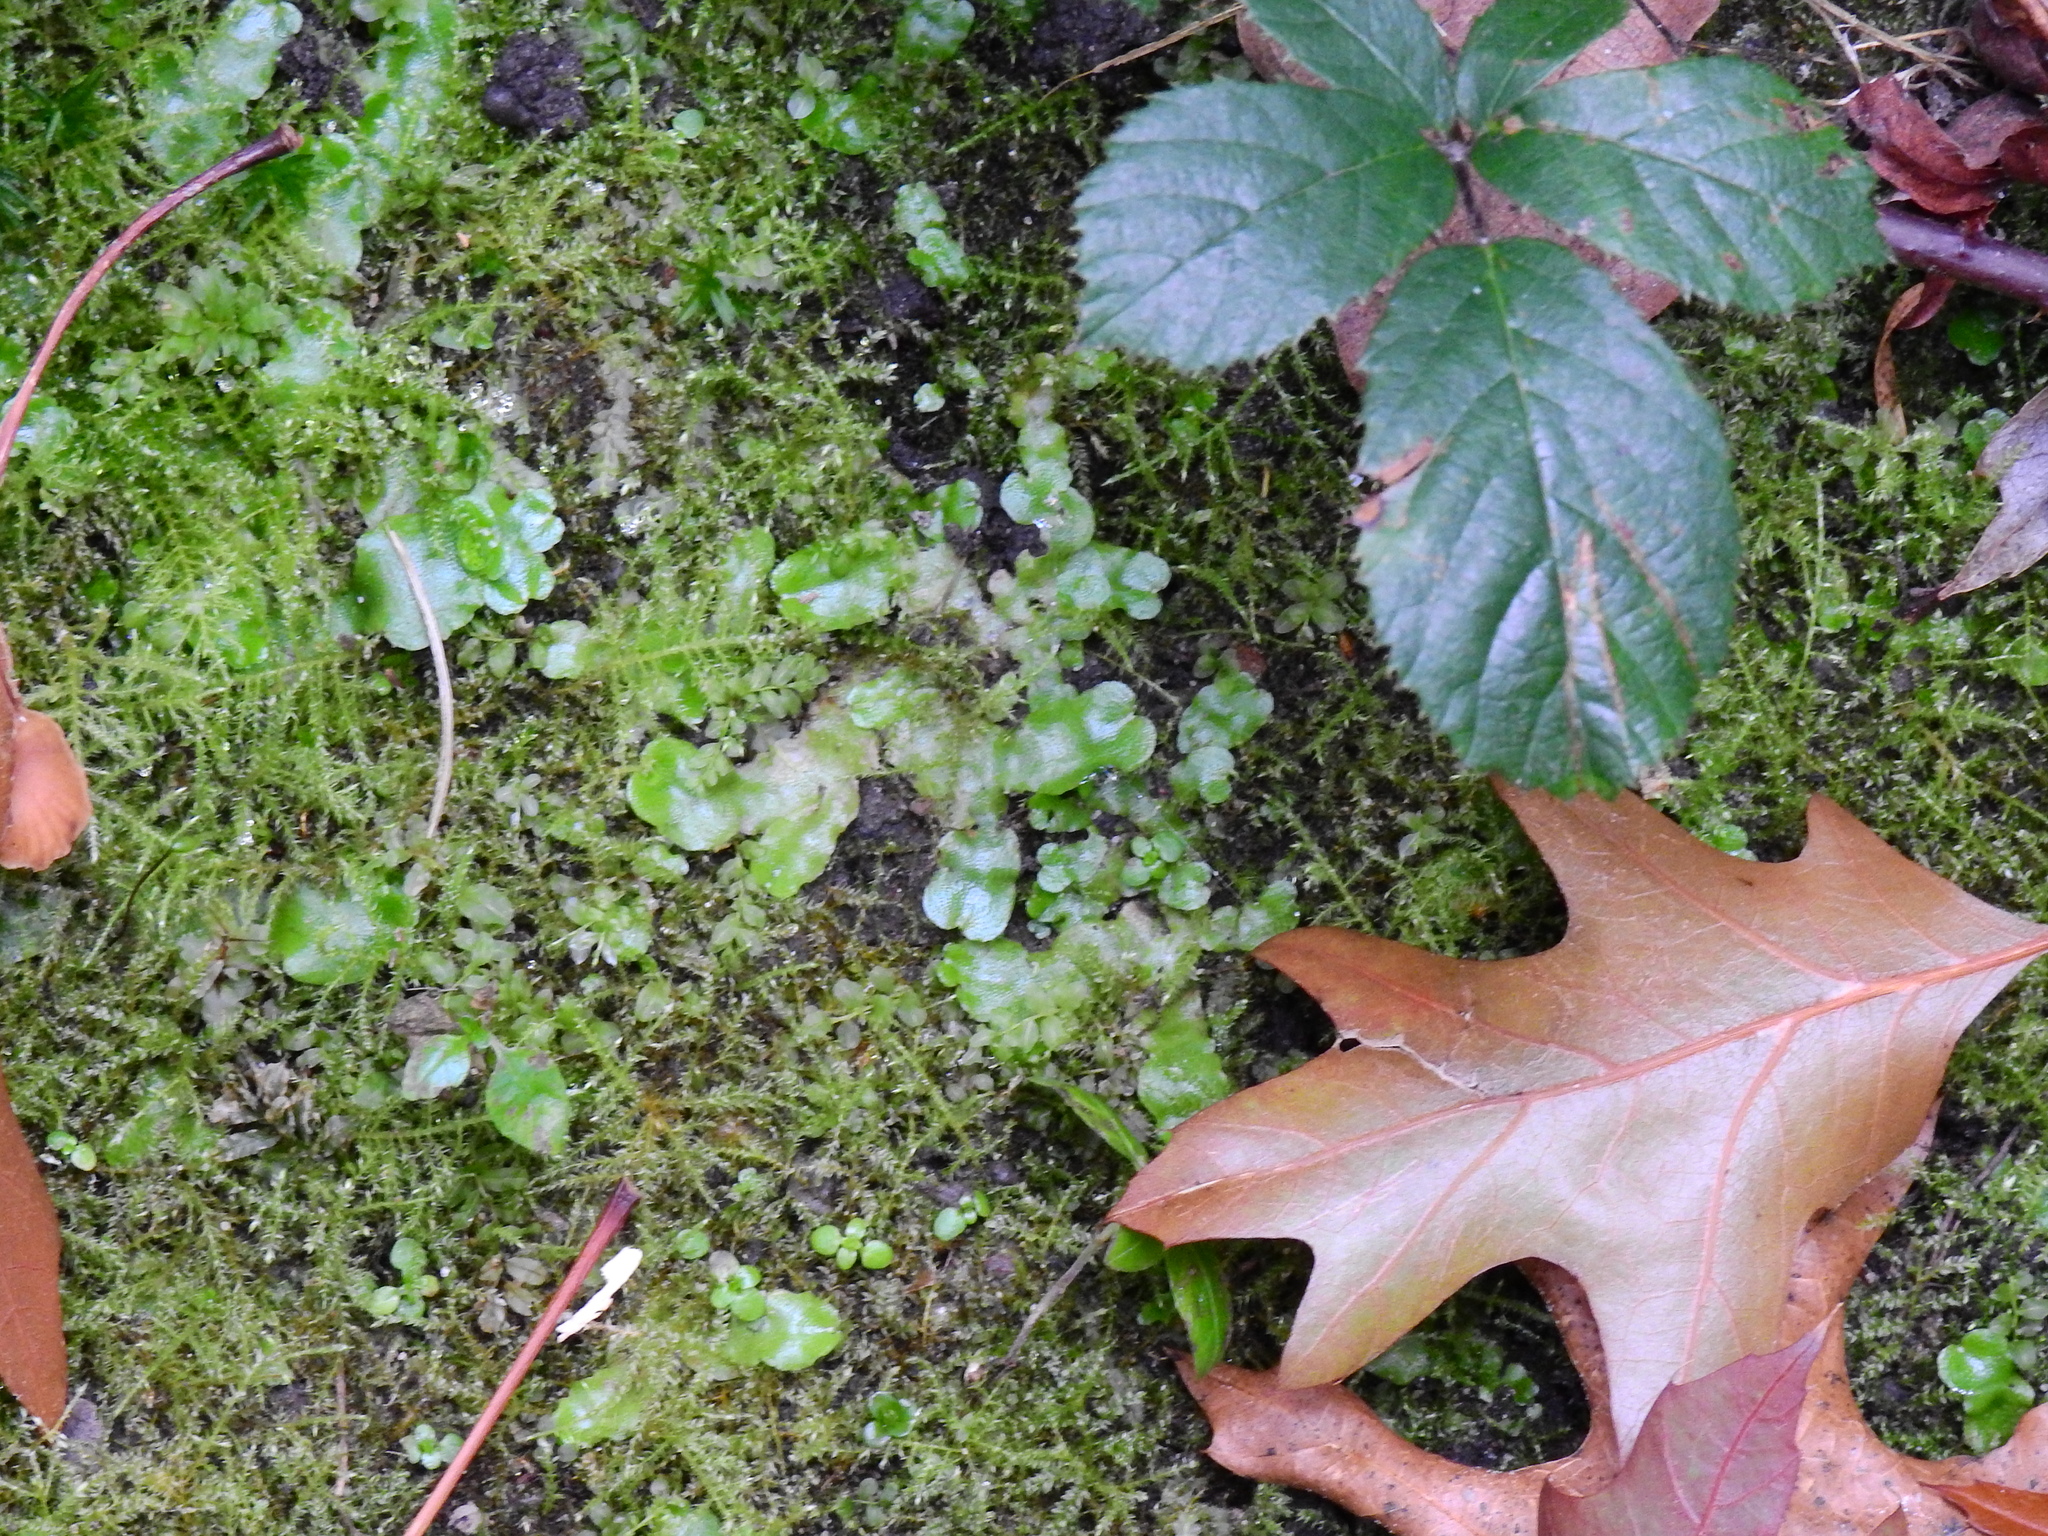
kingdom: Plantae
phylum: Marchantiophyta
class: Marchantiopsida
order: Lunulariales
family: Lunulariaceae
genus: Lunularia
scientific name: Lunularia cruciata
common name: Crescent-cup liverwort
